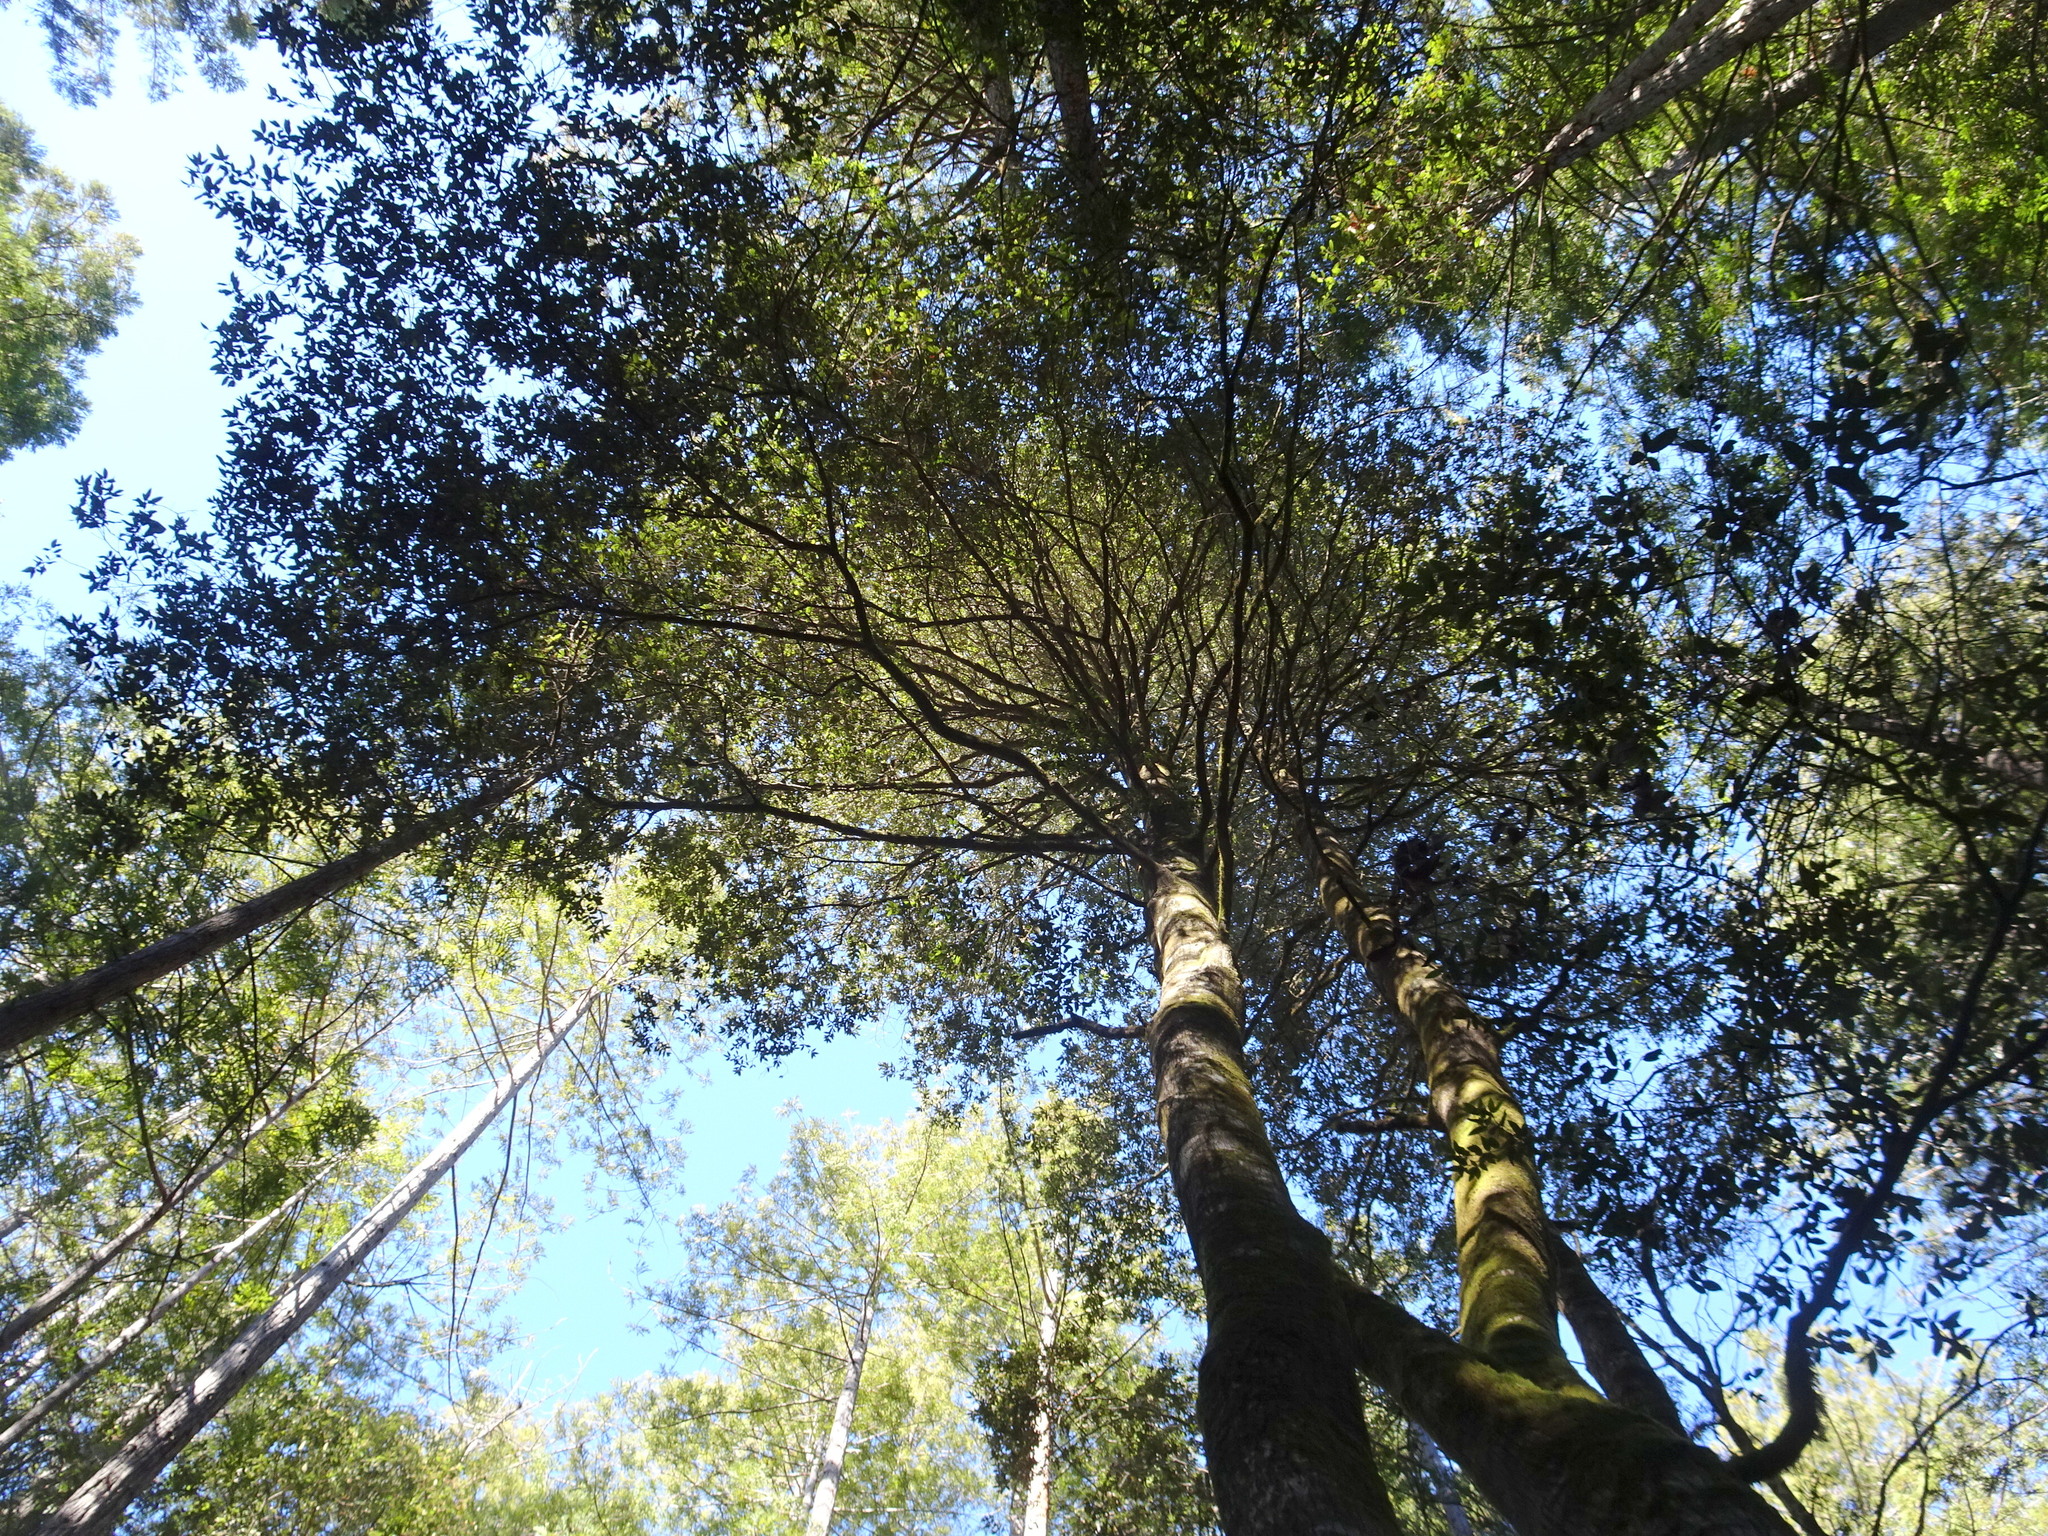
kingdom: Plantae
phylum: Tracheophyta
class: Magnoliopsida
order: Fagales
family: Fagaceae
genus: Notholithocarpus
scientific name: Notholithocarpus densiflorus
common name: Tan bark oak
